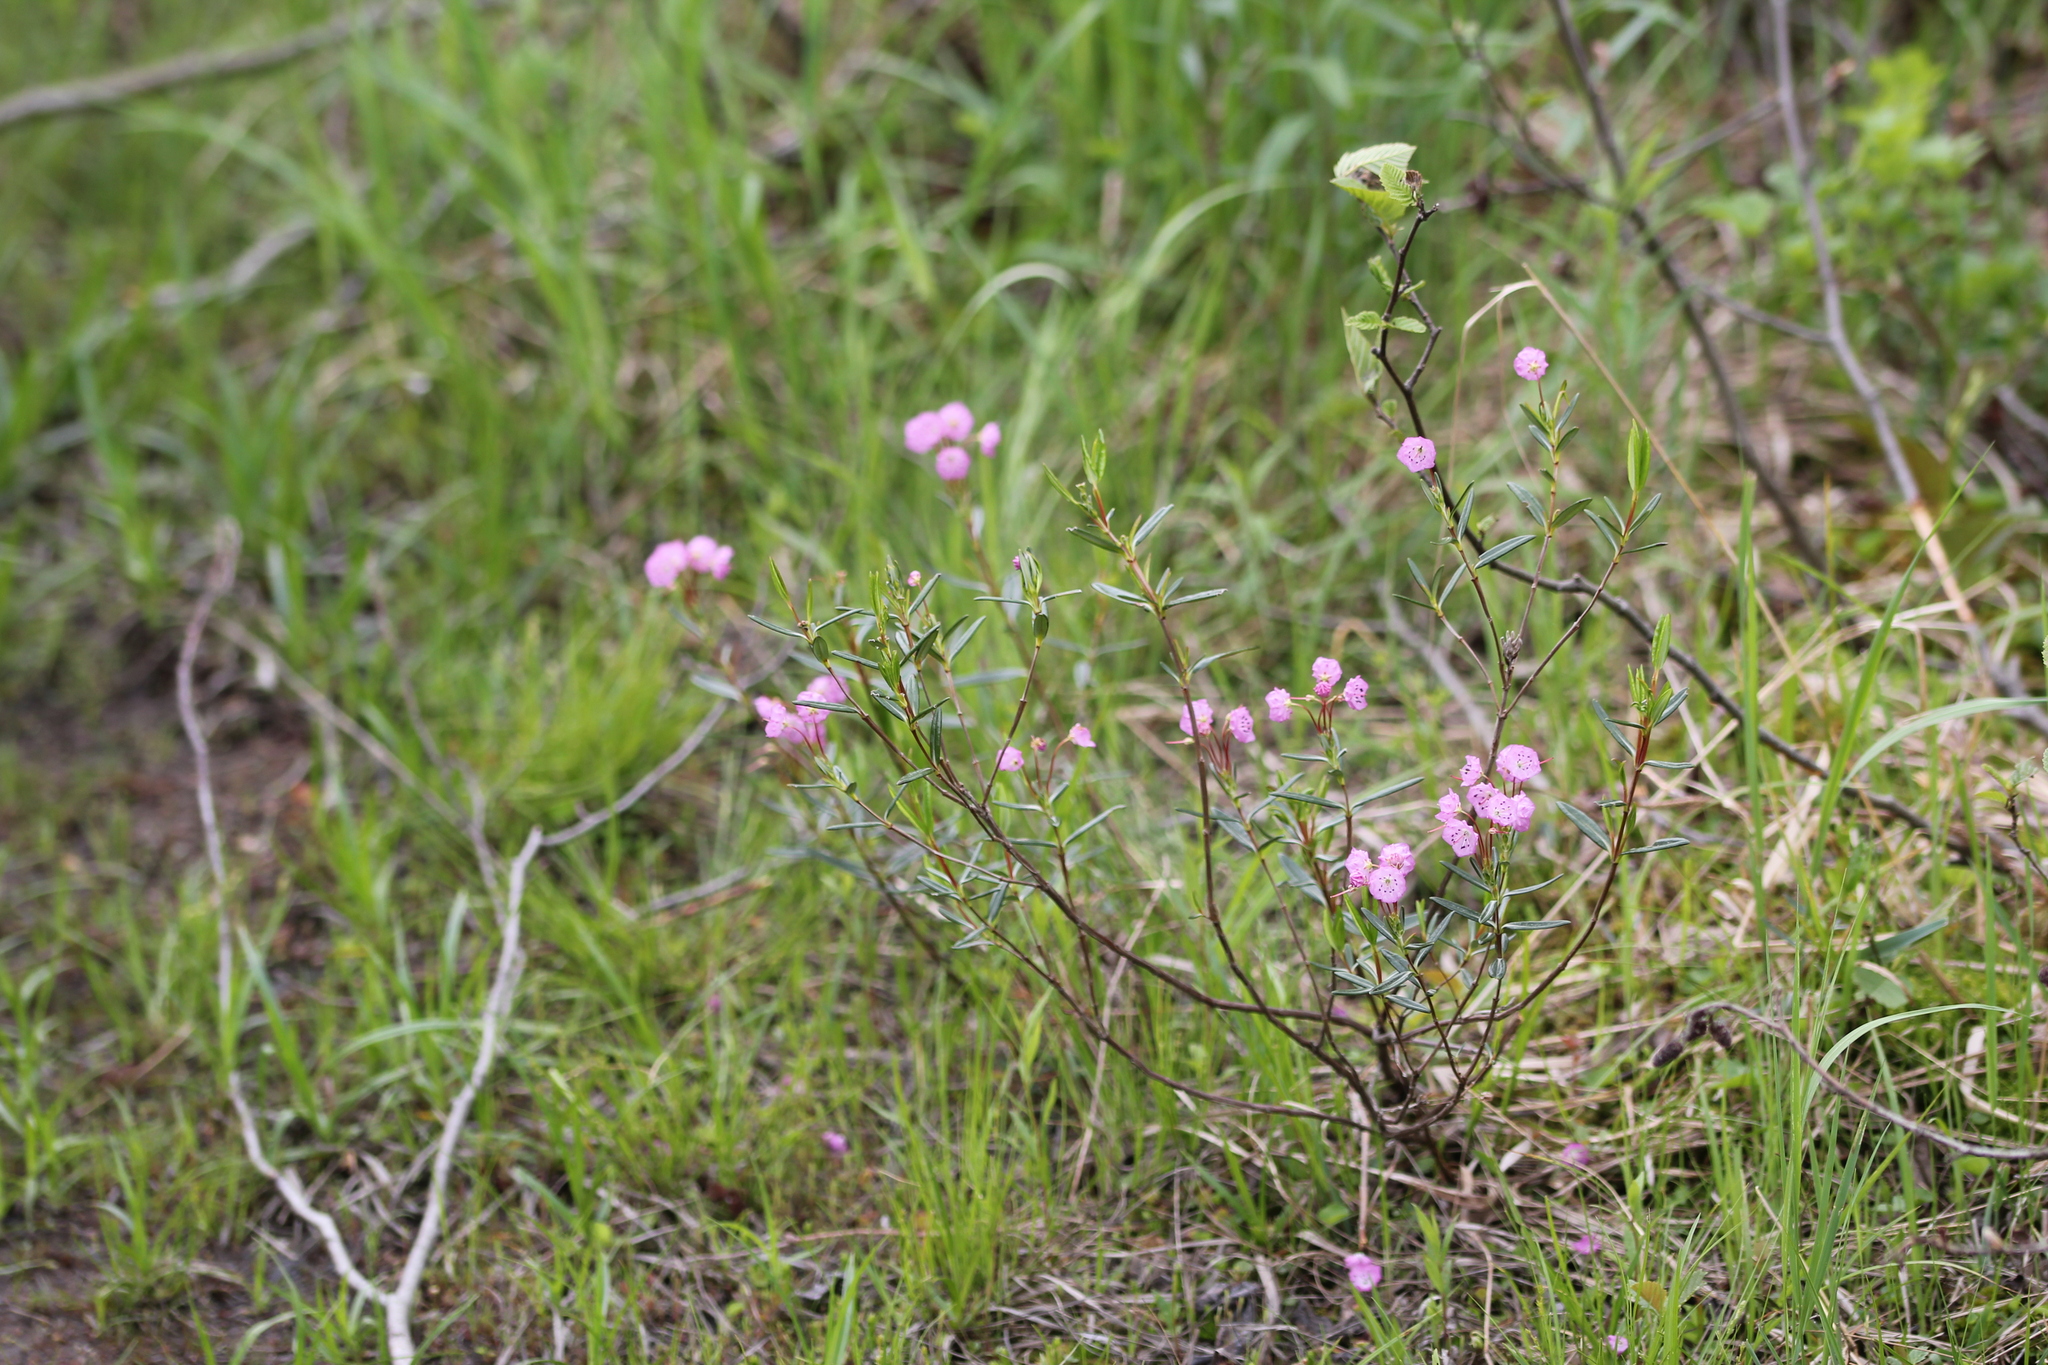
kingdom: Plantae
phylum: Tracheophyta
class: Magnoliopsida
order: Ericales
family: Ericaceae
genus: Kalmia
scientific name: Kalmia polifolia
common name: Bog-laurel
